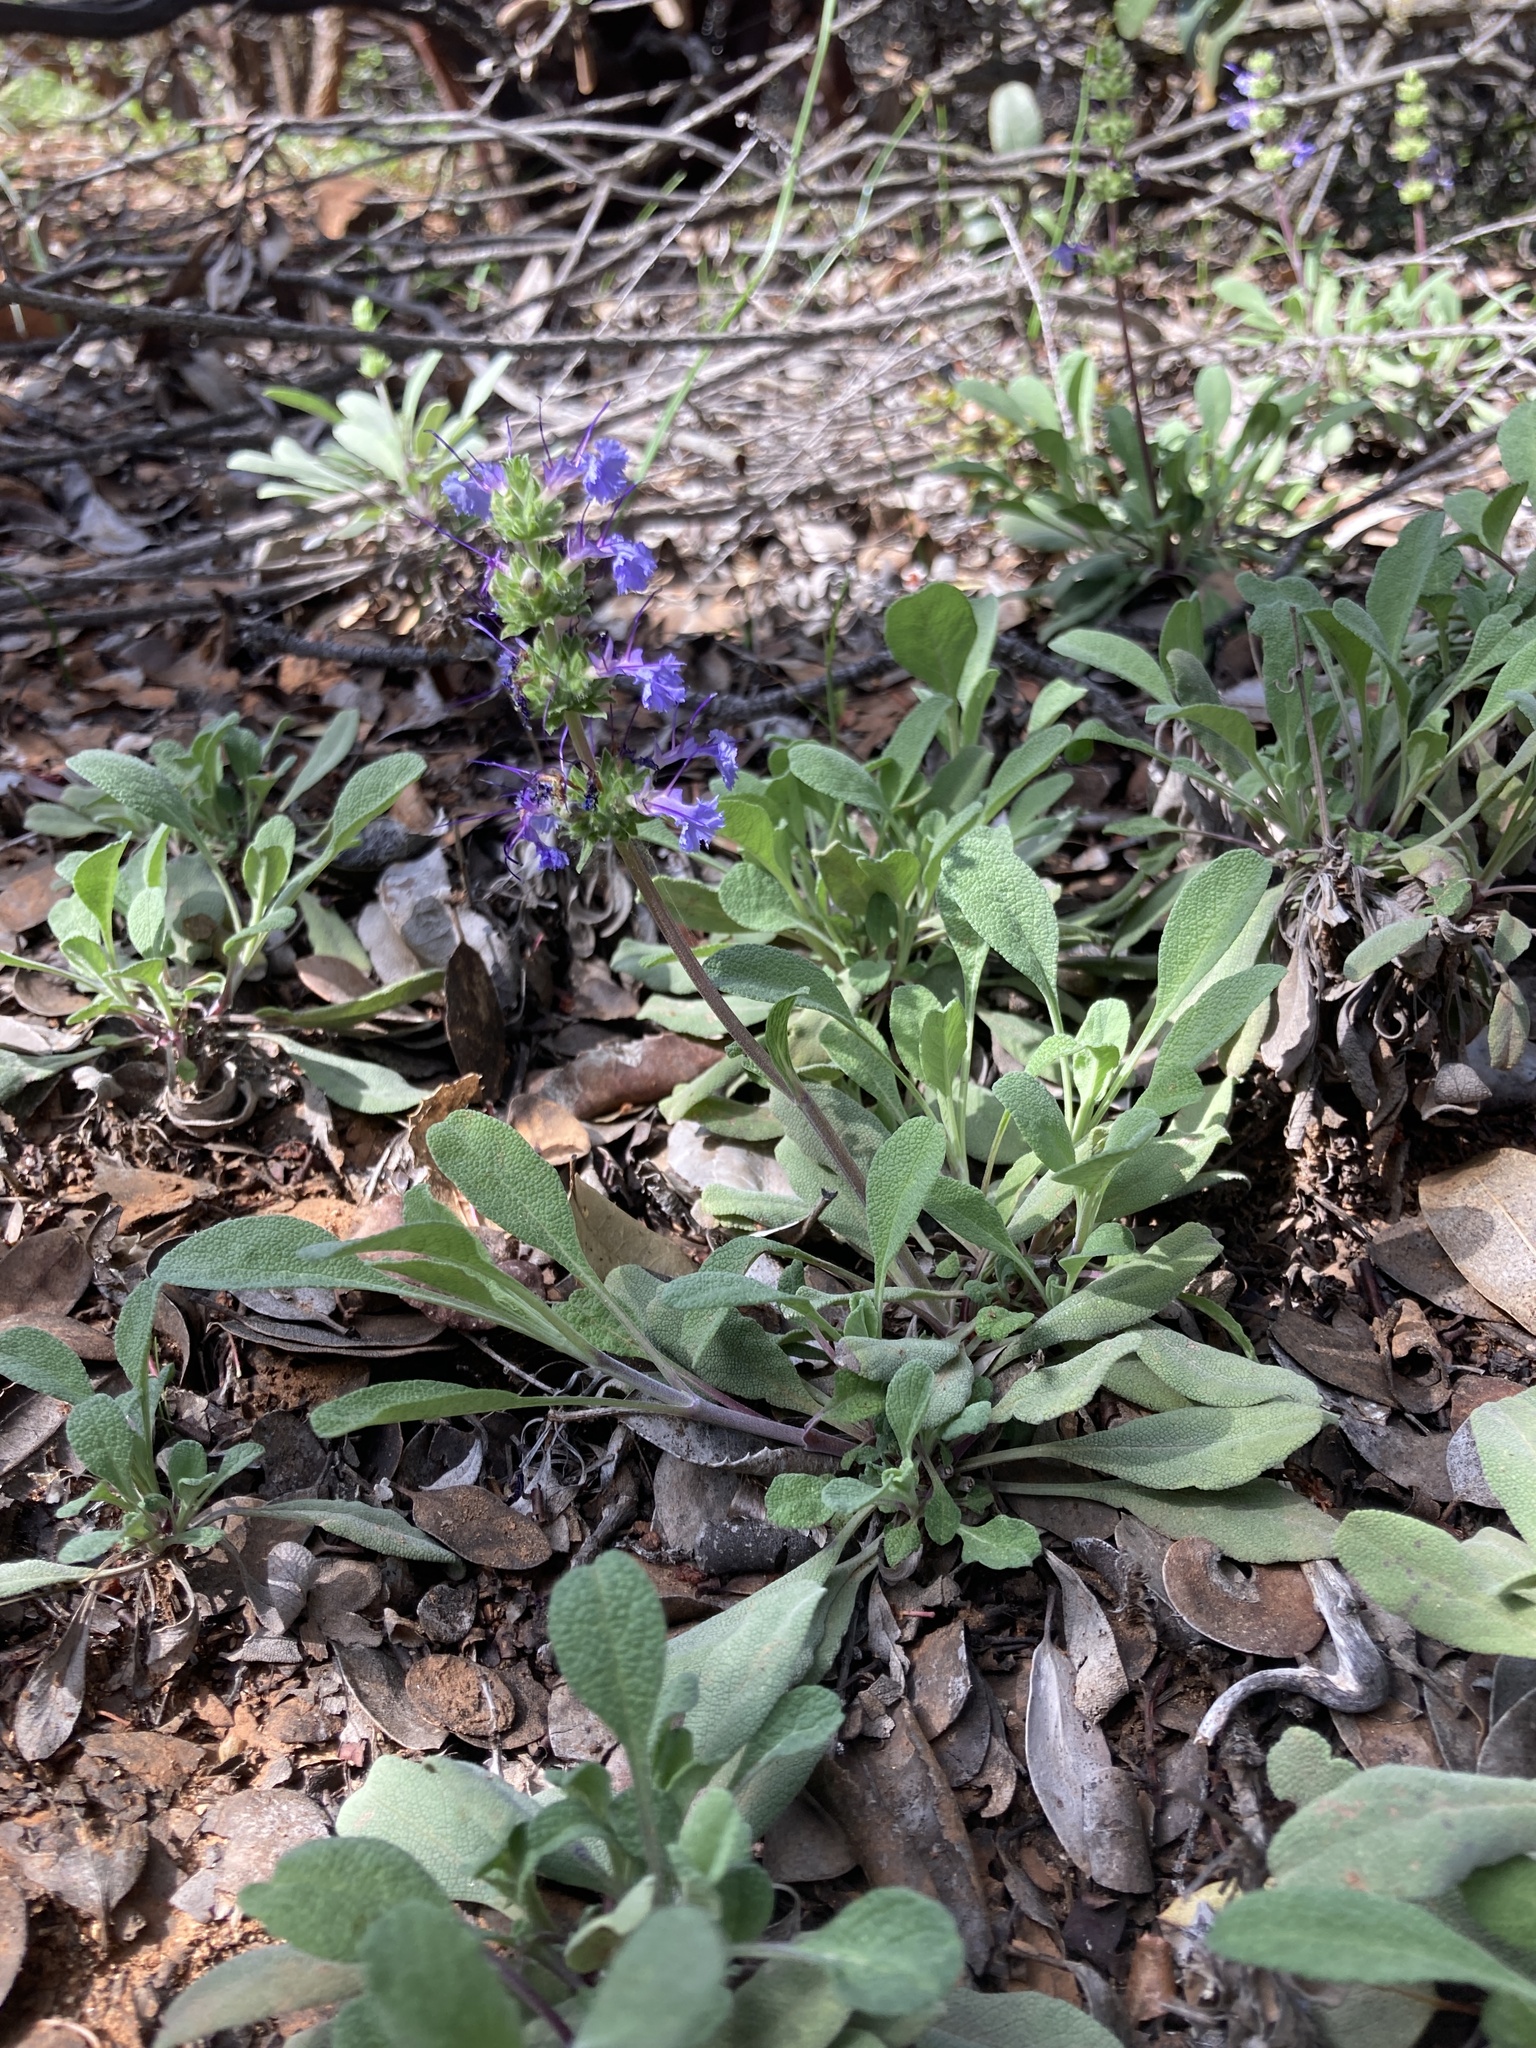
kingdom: Plantae
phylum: Tracheophyta
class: Magnoliopsida
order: Lamiales
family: Lamiaceae
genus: Salvia
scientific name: Salvia sonomensis
